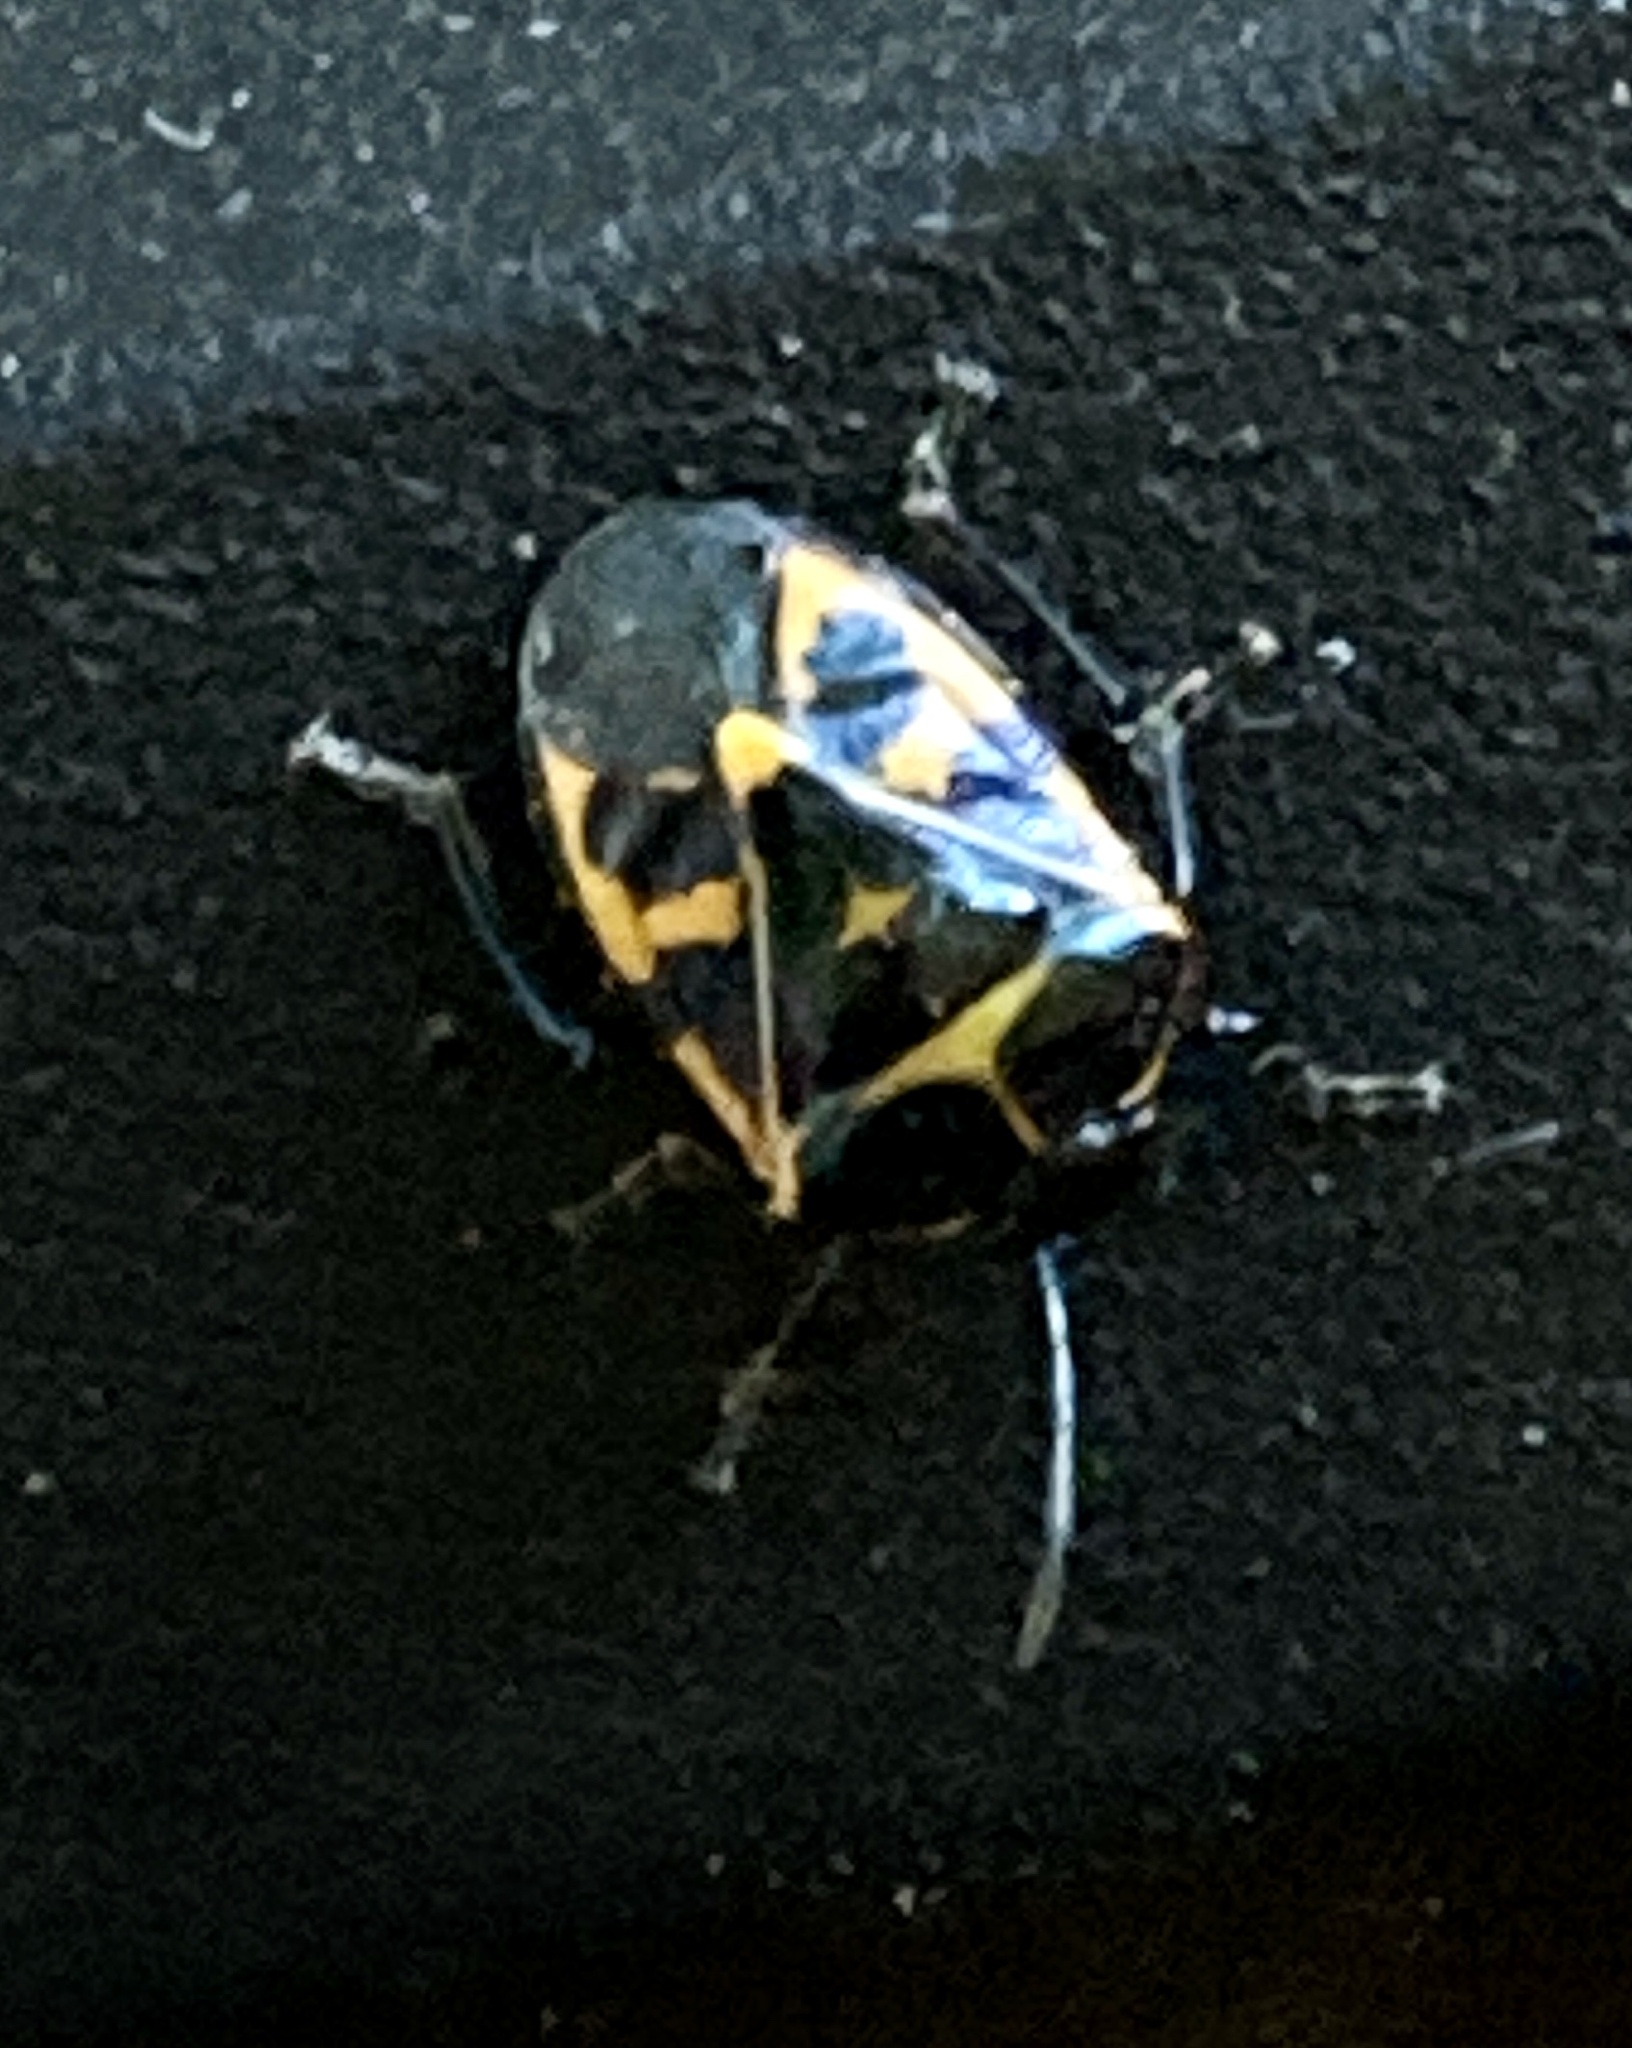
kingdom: Animalia
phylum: Arthropoda
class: Insecta
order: Hemiptera
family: Pentatomidae
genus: Murgantia
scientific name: Murgantia histrionica
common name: Harlequin bug
